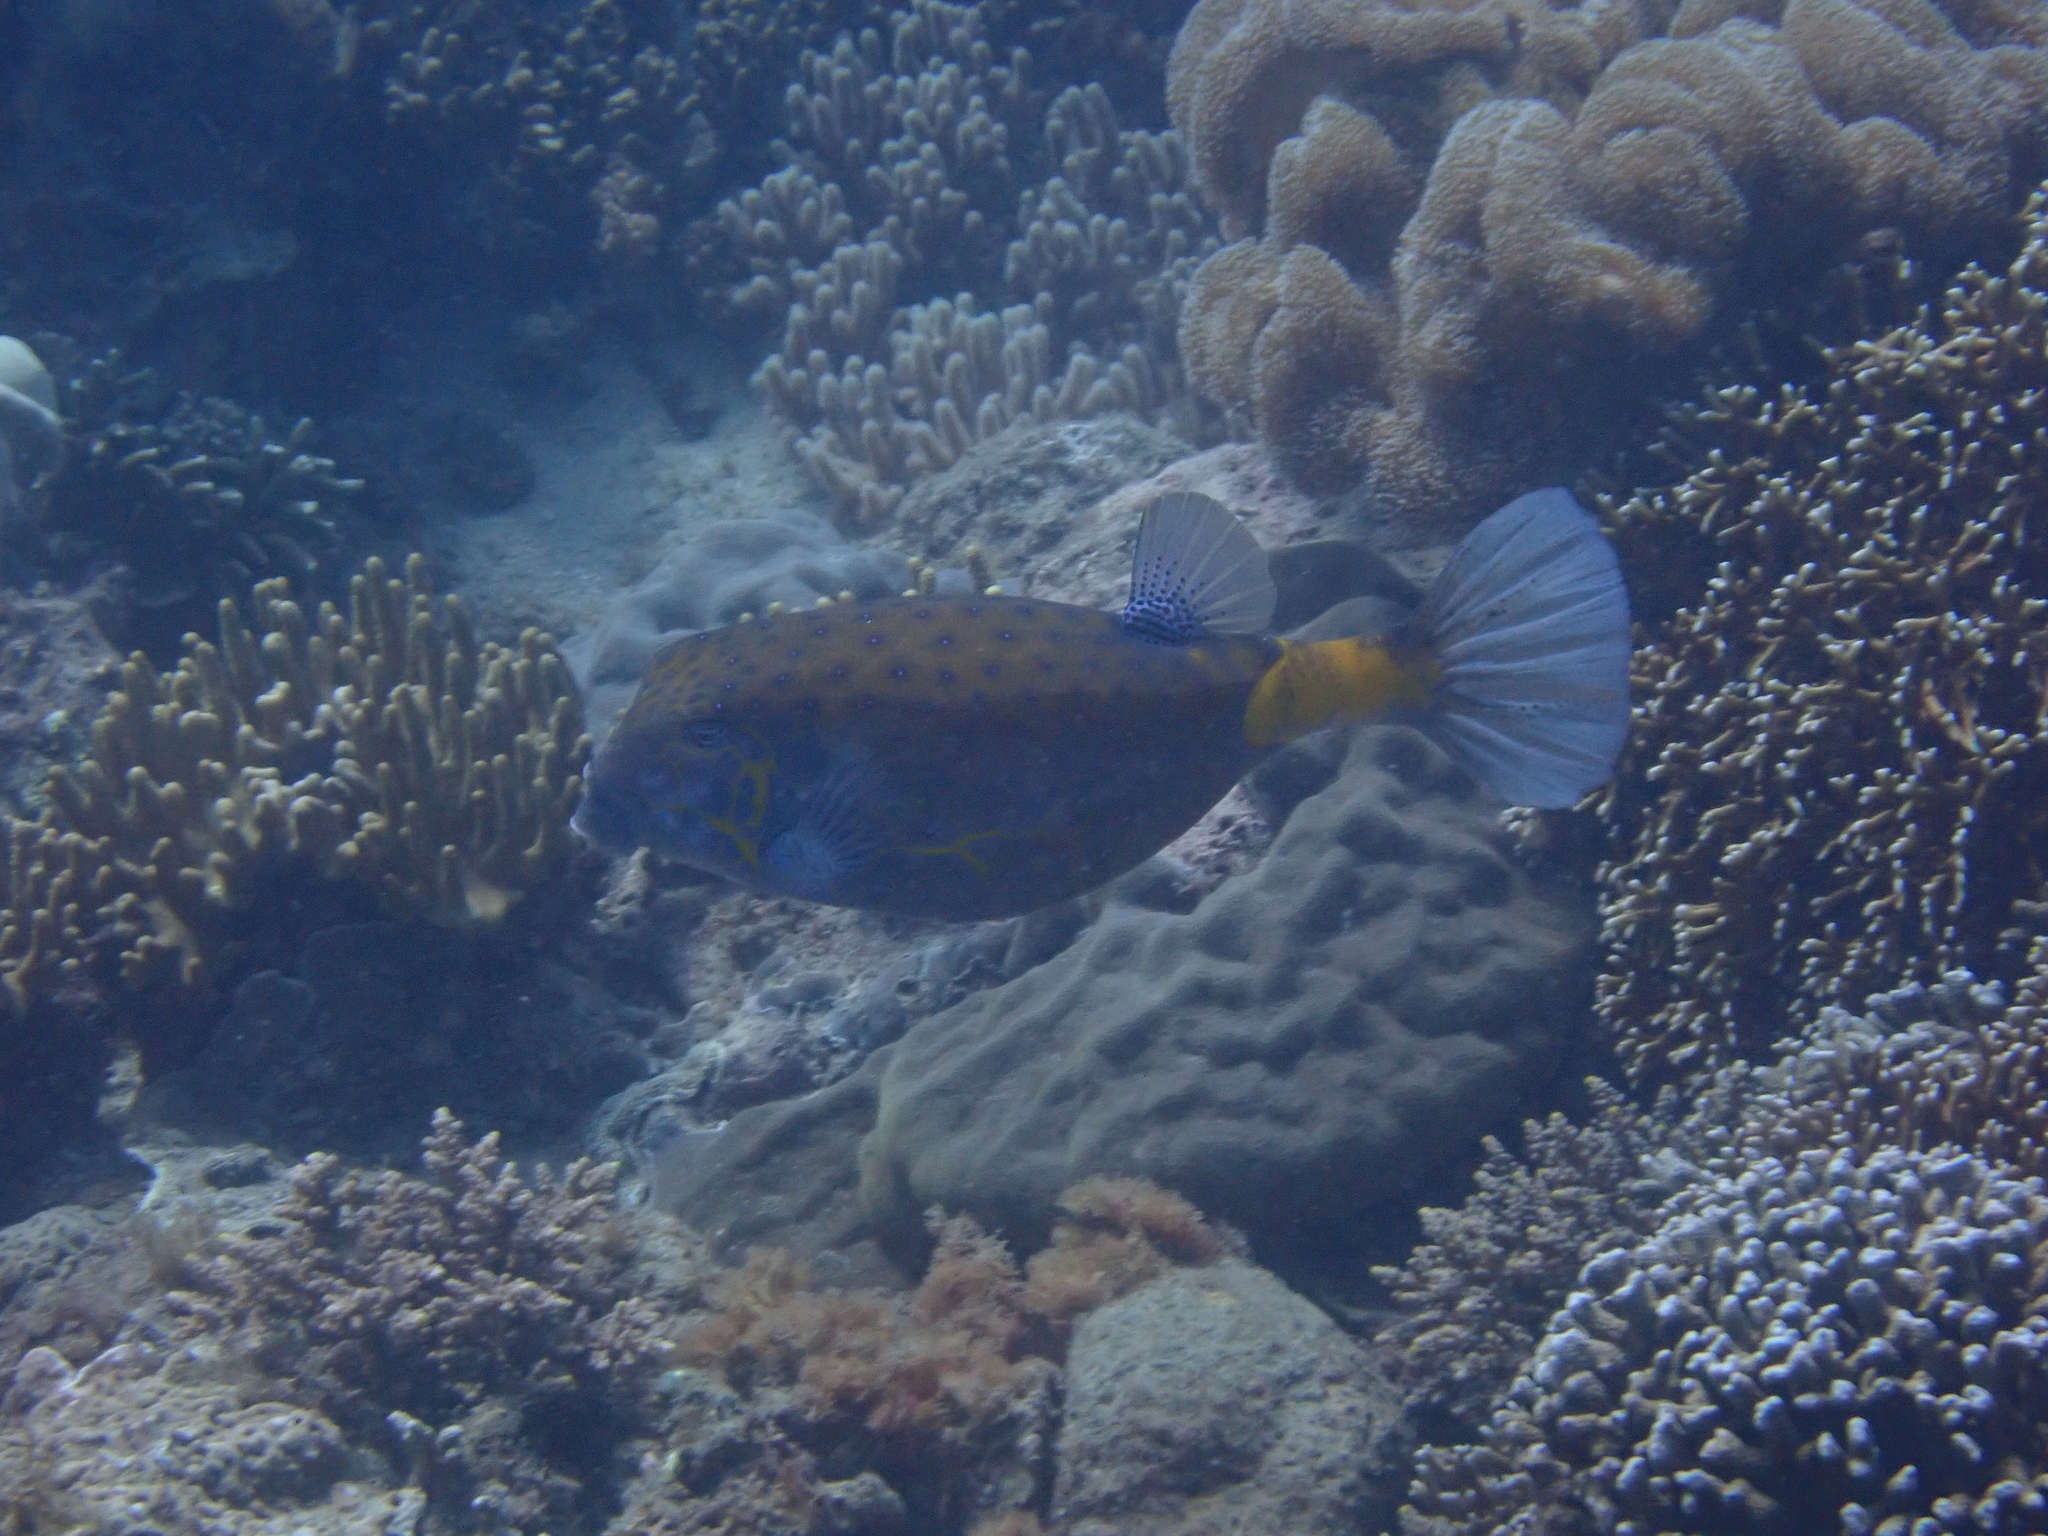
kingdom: Animalia
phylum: Chordata
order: Tetraodontiformes
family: Ostraciidae
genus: Ostracion
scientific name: Ostracion cubicus
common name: Cube trunkfish
